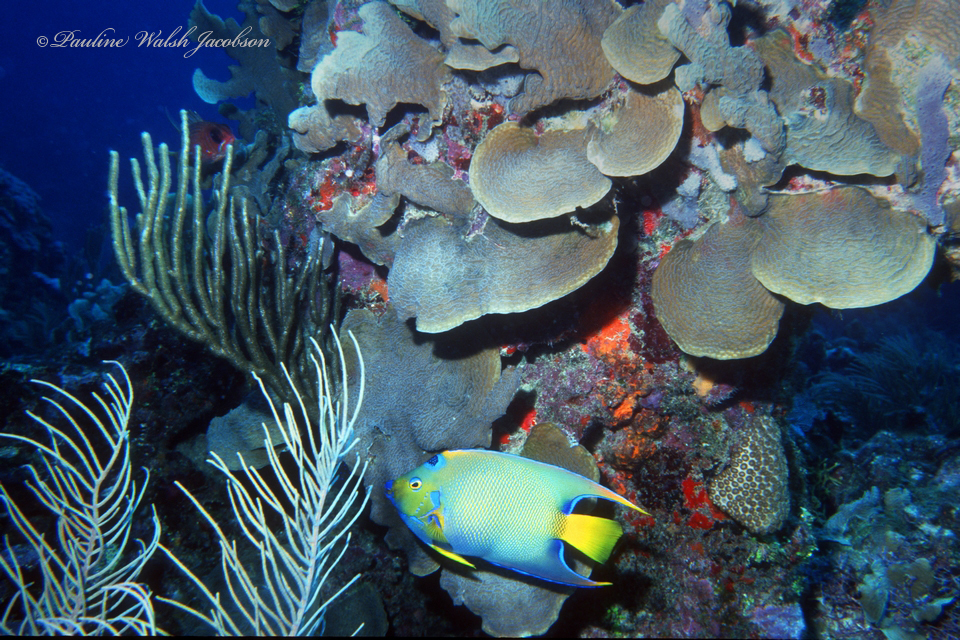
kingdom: Animalia
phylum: Chordata
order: Perciformes
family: Pomacanthidae
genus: Holacanthus
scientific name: Holacanthus ciliaris
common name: Queen angelfish
